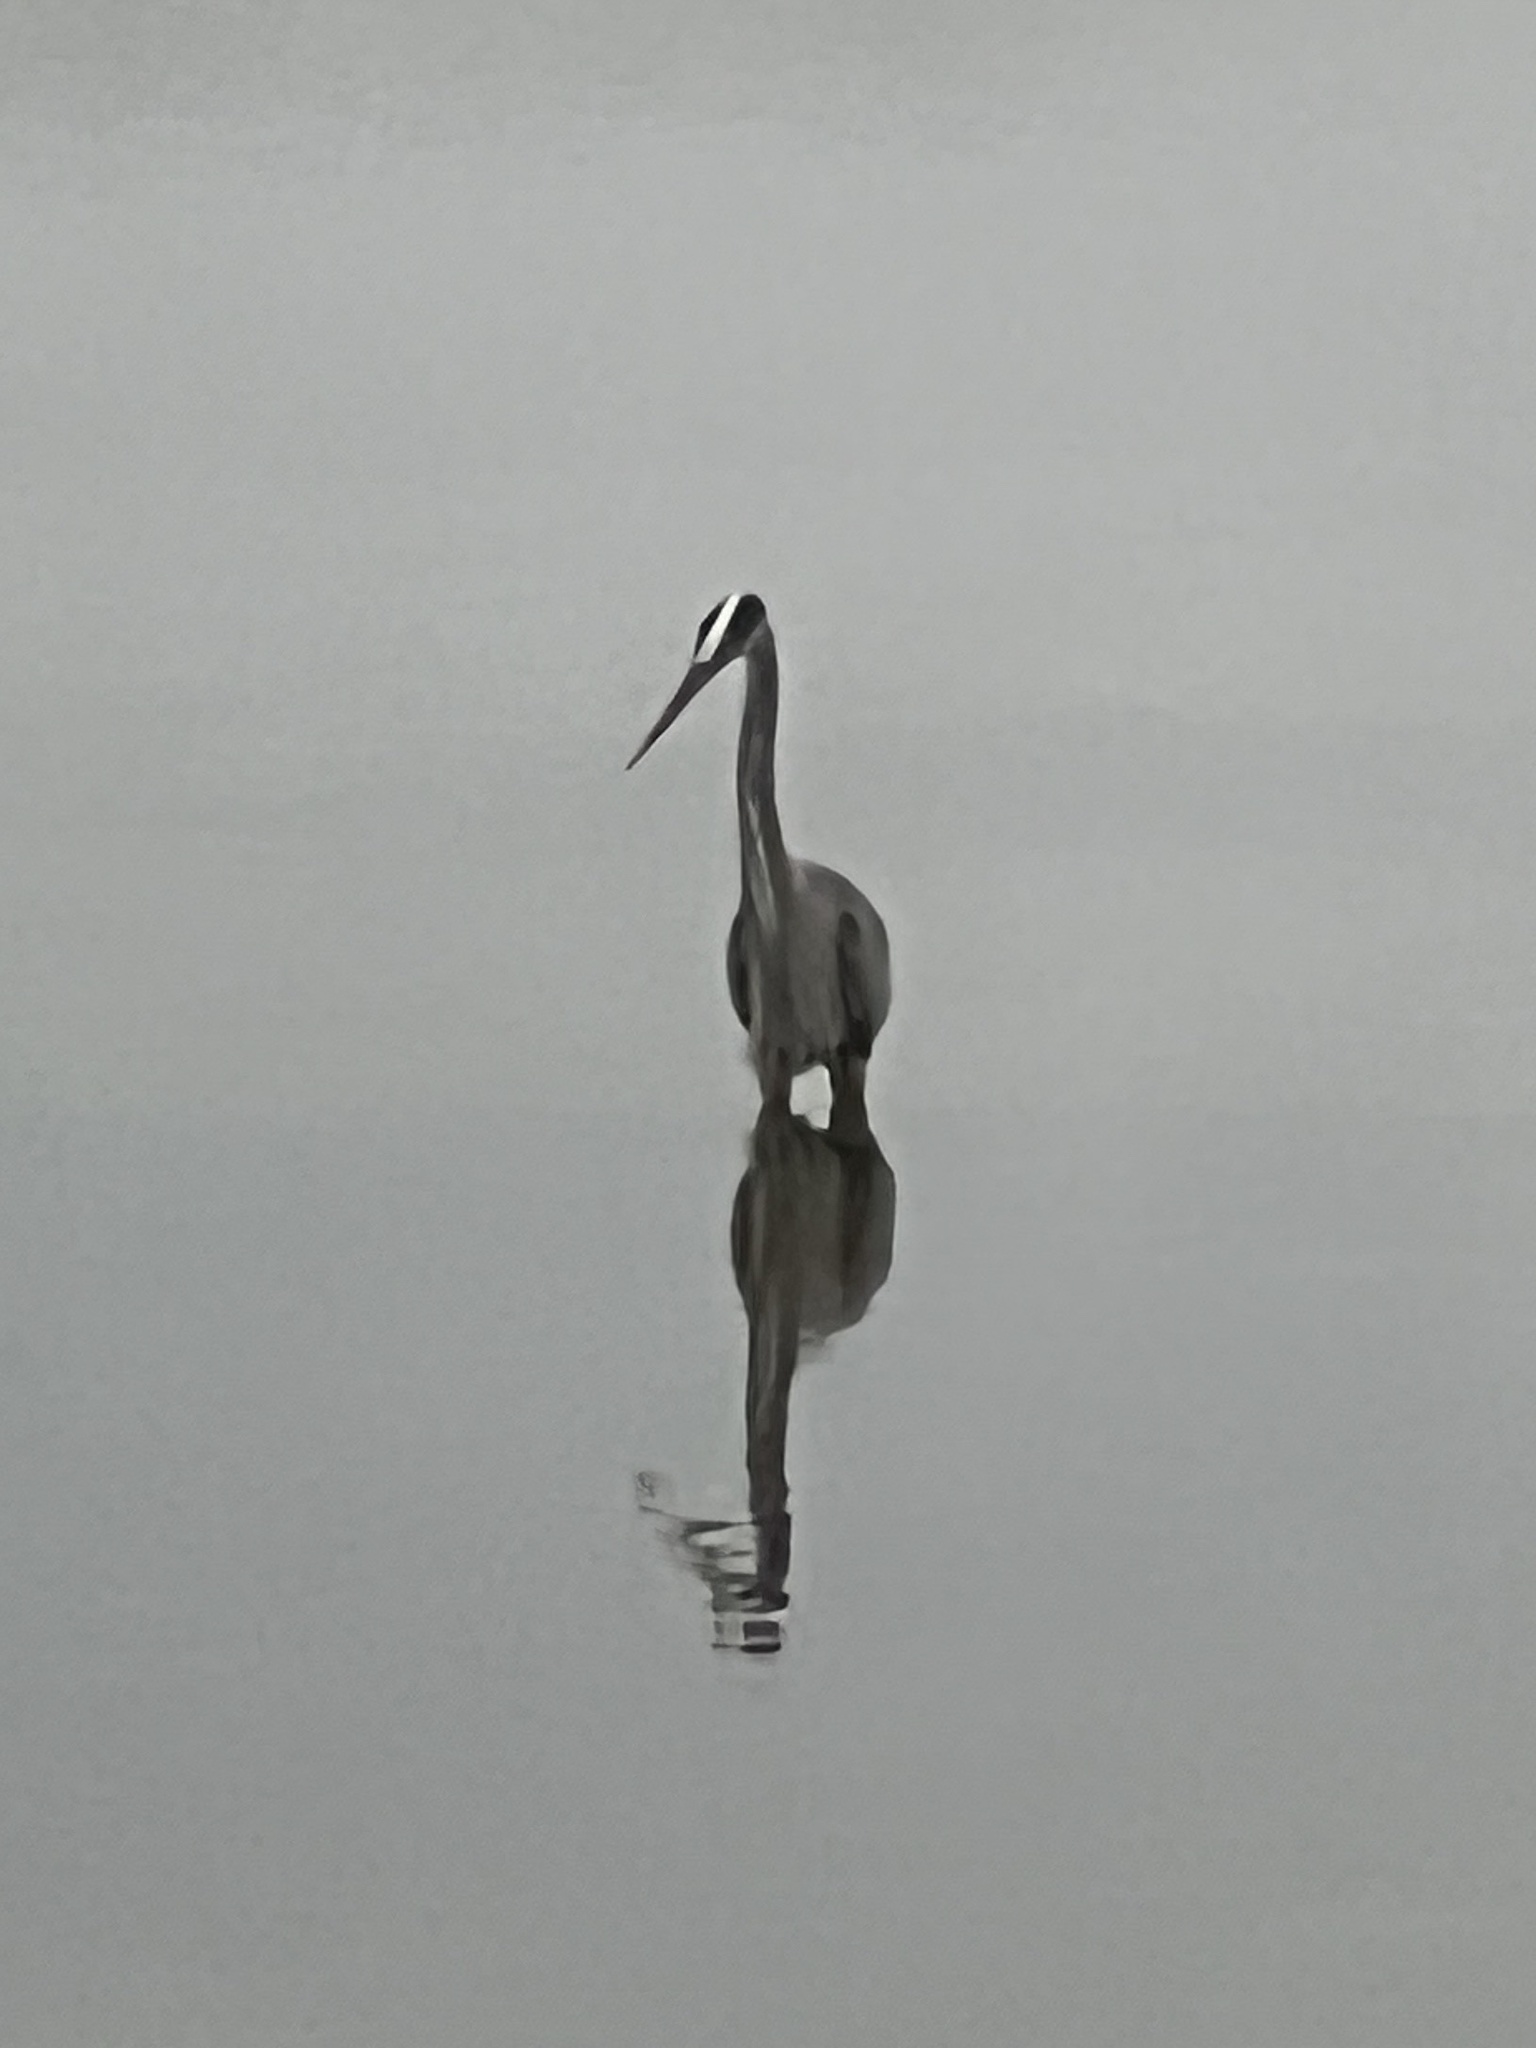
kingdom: Animalia
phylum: Chordata
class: Aves
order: Pelecaniformes
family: Ardeidae
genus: Ardea
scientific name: Ardea herodias
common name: Great blue heron
